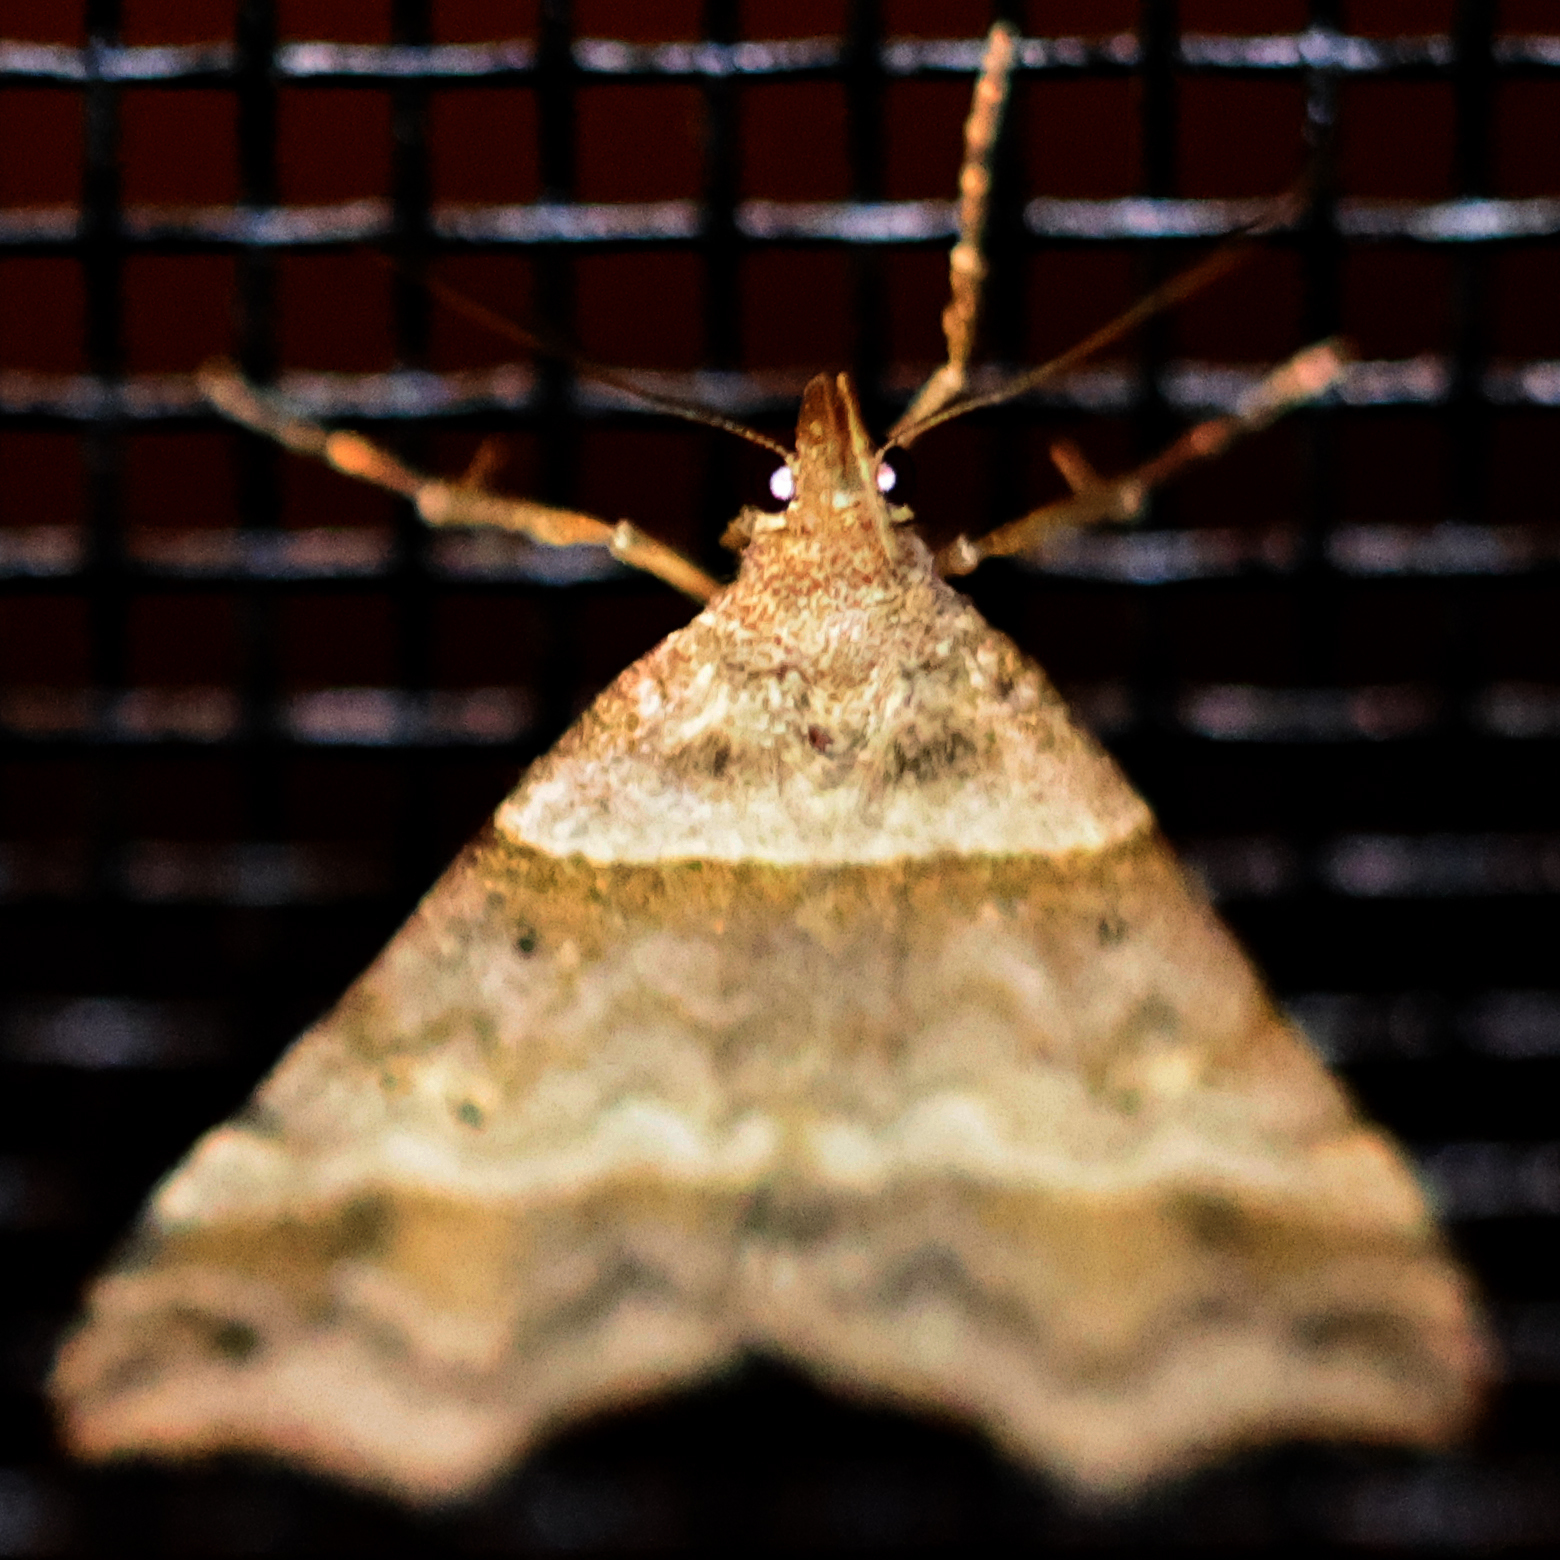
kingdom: Animalia
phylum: Arthropoda
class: Insecta
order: Lepidoptera
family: Erebidae
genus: Phaeolita
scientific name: Phaeolita pyramusalis
